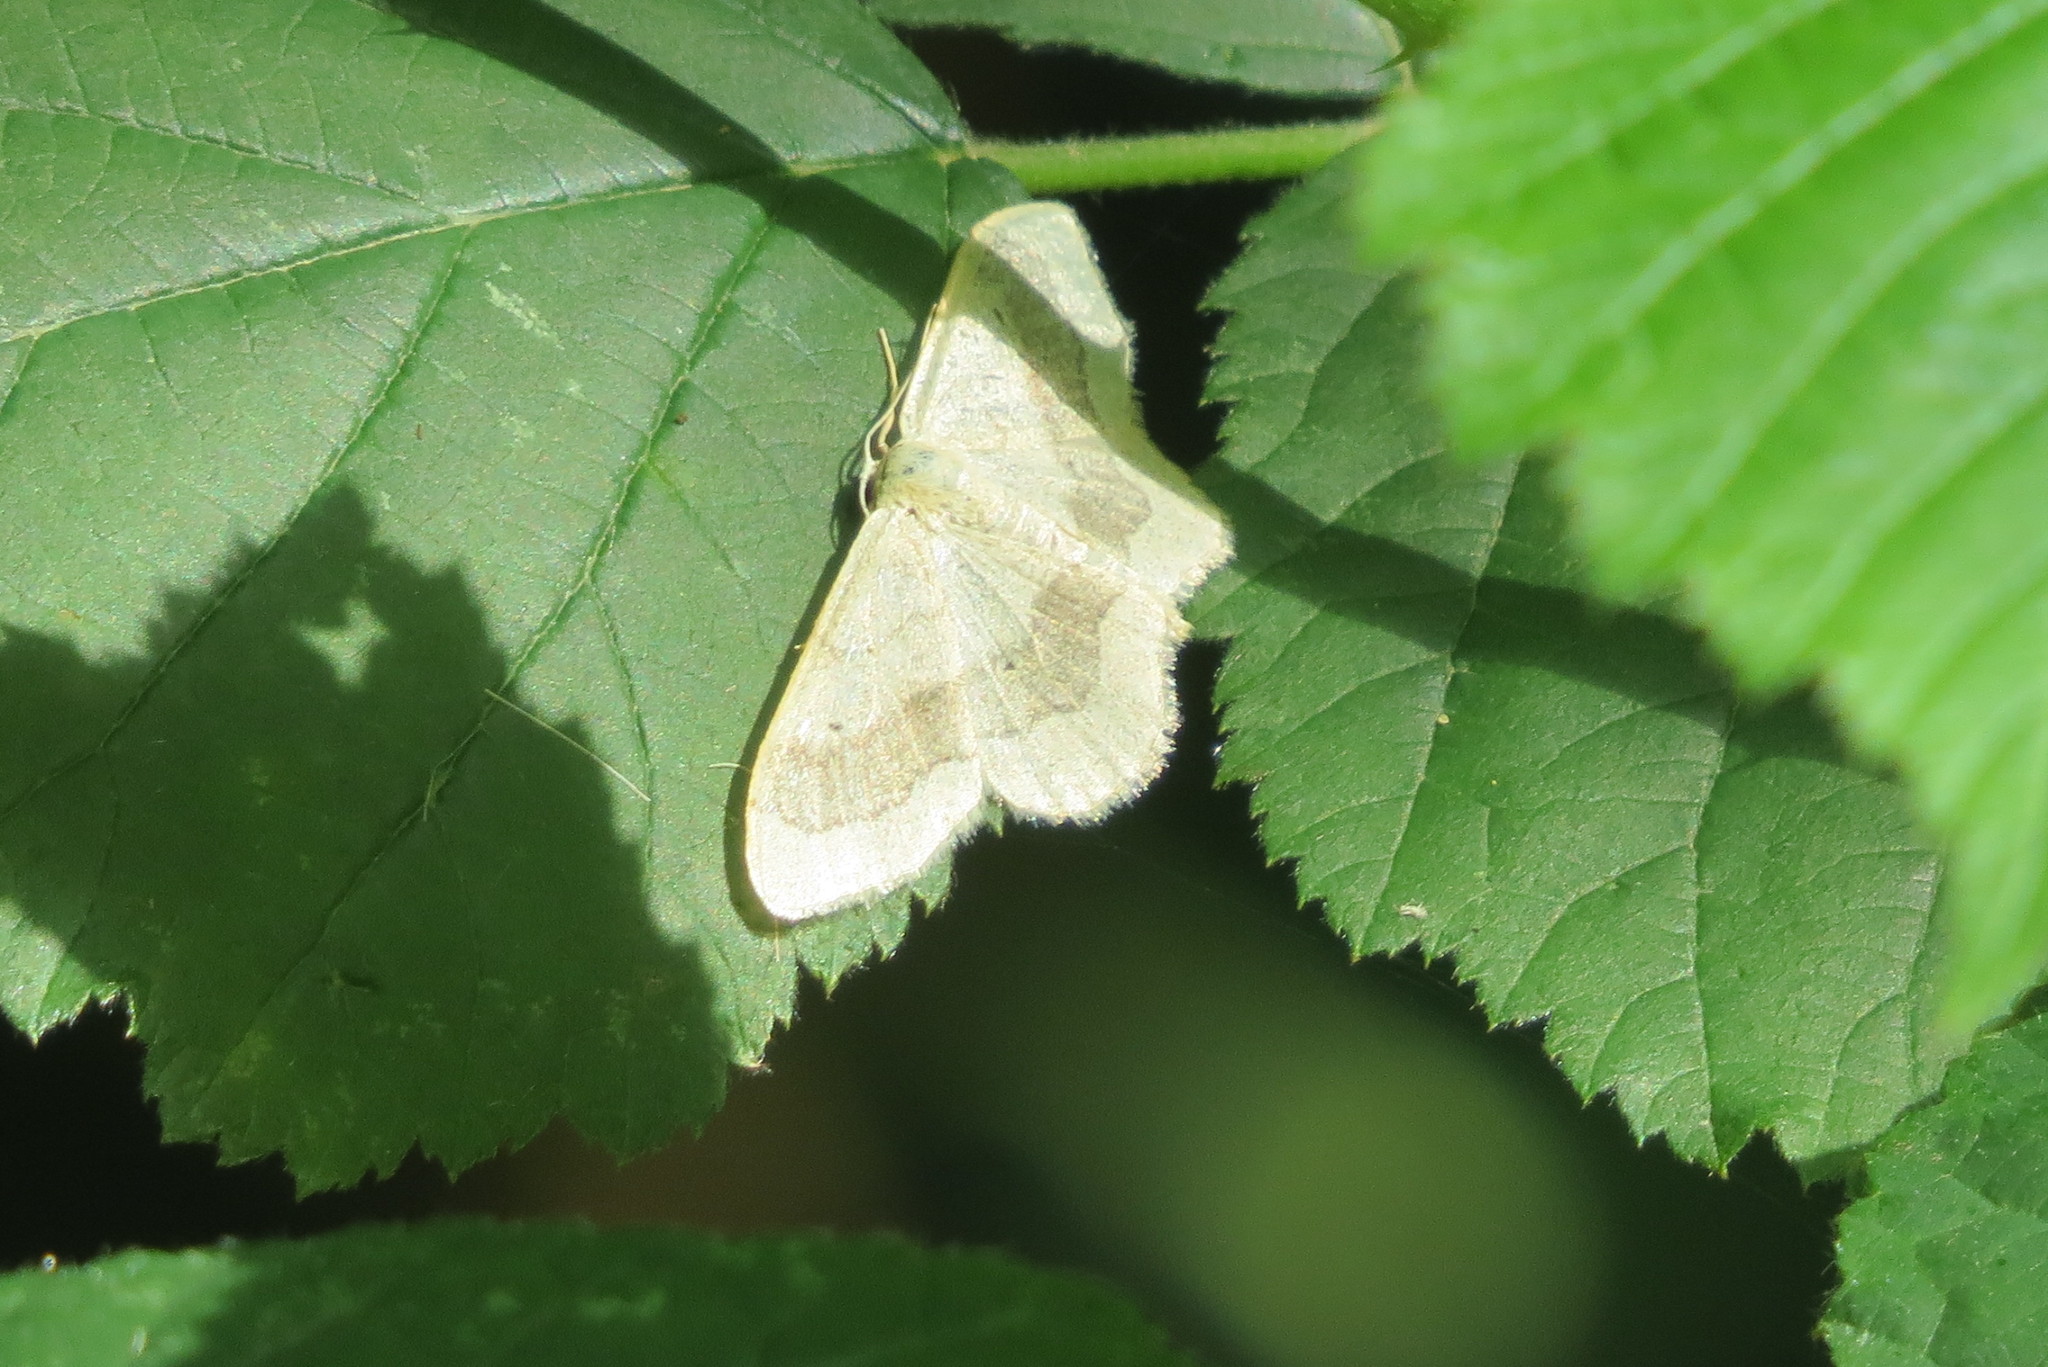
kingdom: Animalia
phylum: Arthropoda
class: Insecta
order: Lepidoptera
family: Geometridae
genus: Idaea
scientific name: Idaea aversata
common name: Riband wave
